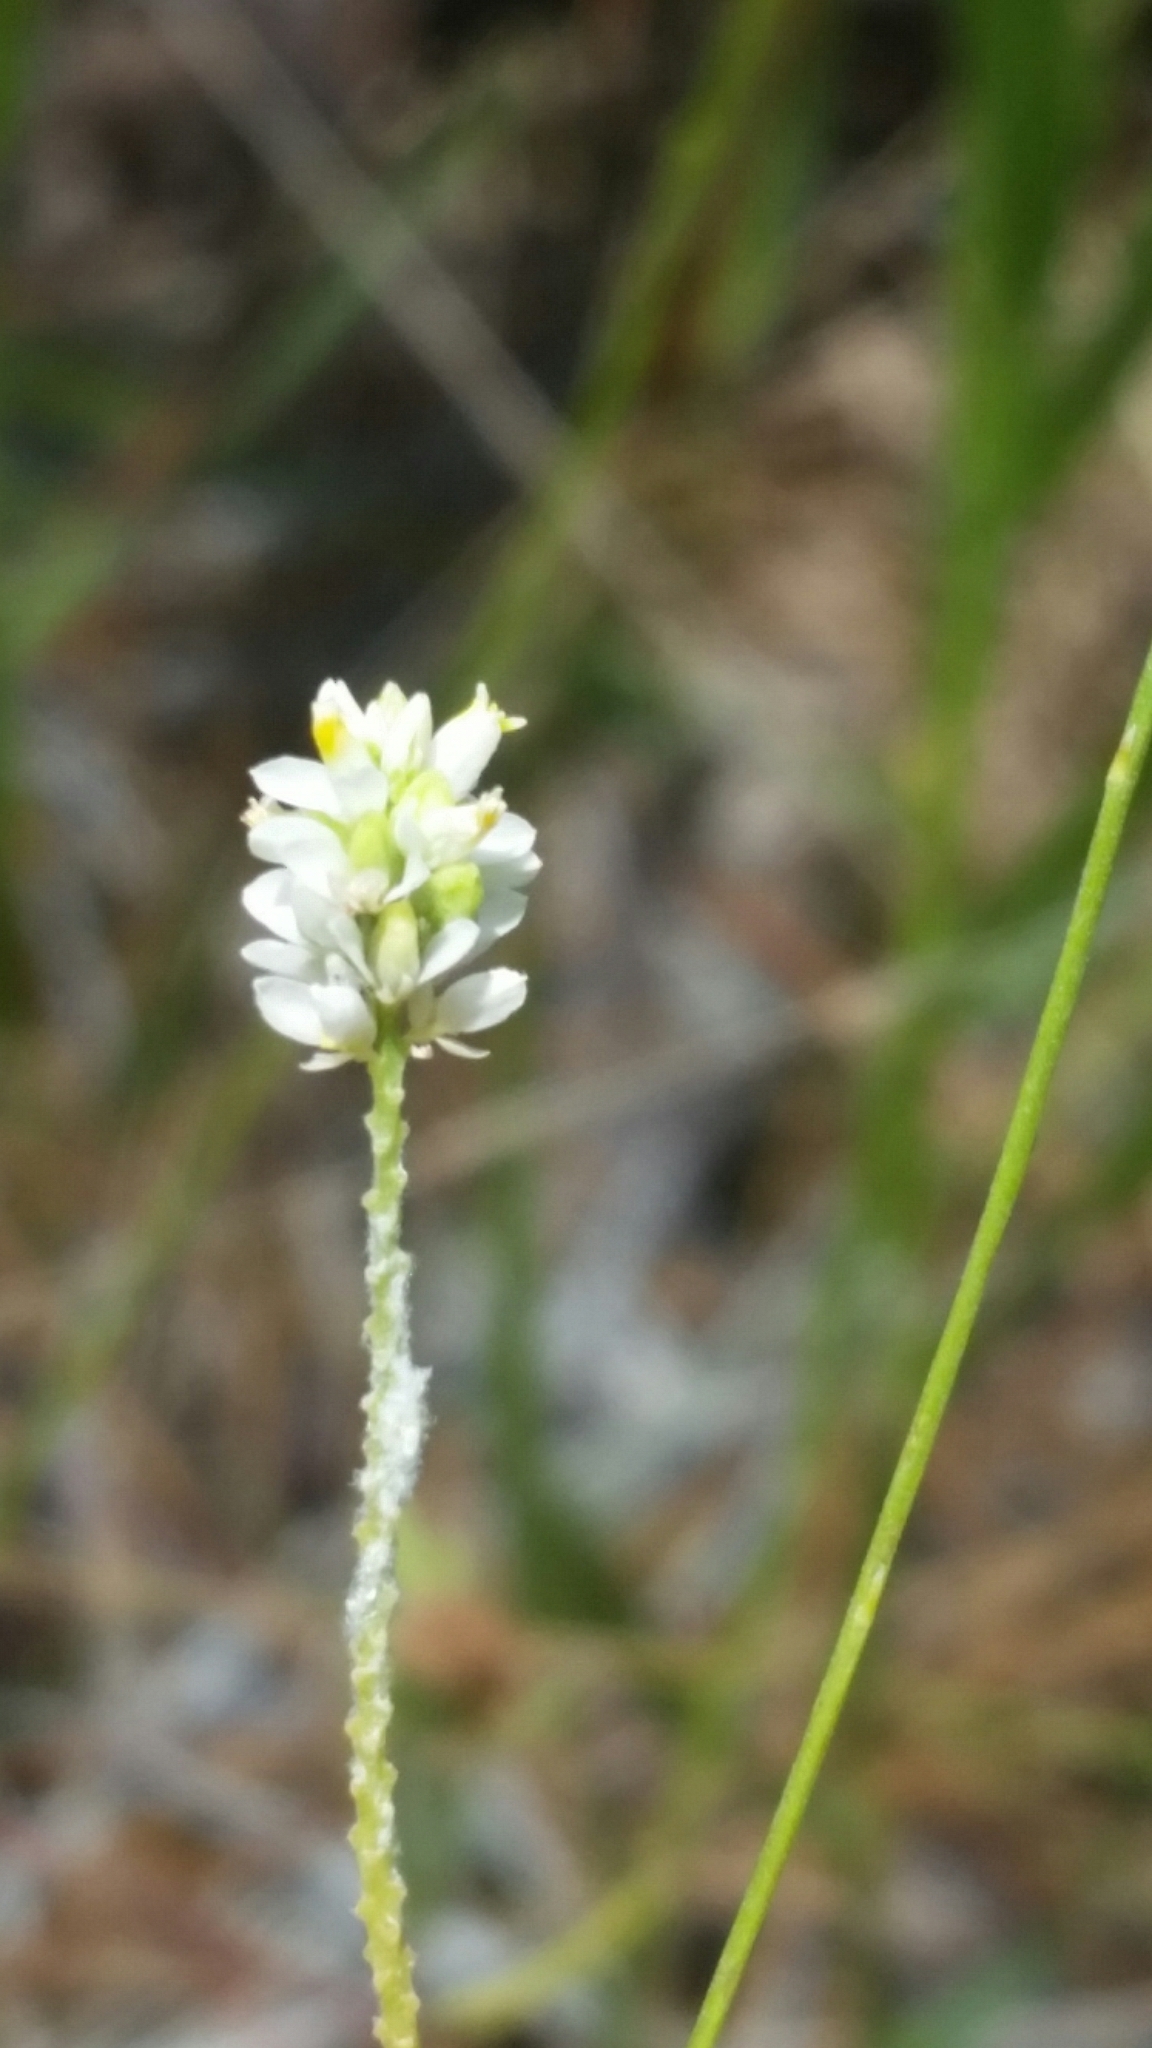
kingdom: Plantae
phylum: Tracheophyta
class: Magnoliopsida
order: Fabales
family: Polygalaceae
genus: Polygala
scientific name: Polygala setacea
